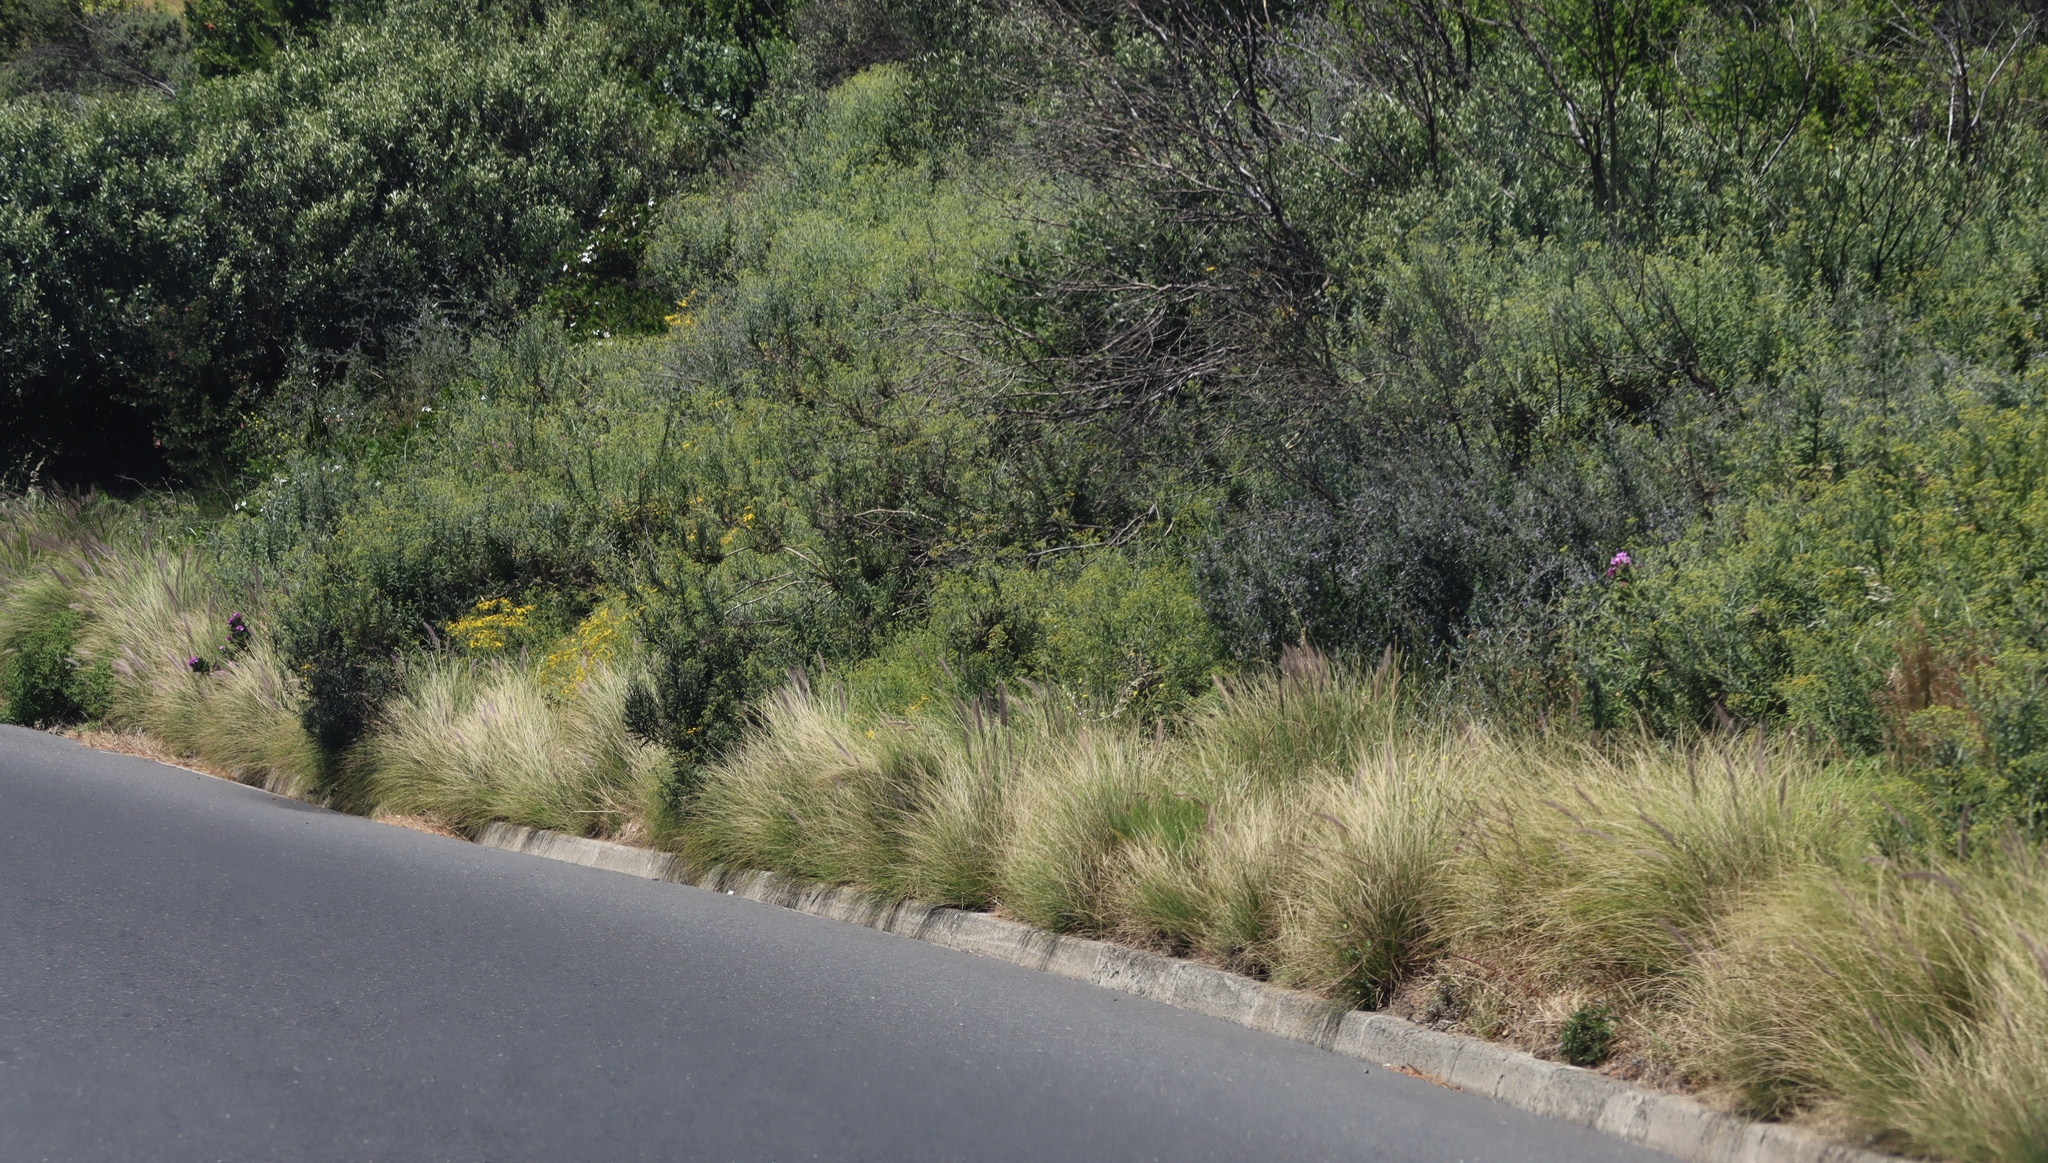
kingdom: Plantae
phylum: Tracheophyta
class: Liliopsida
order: Poales
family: Poaceae
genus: Cenchrus
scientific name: Cenchrus setaceus
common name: Crimson fountaingrass
